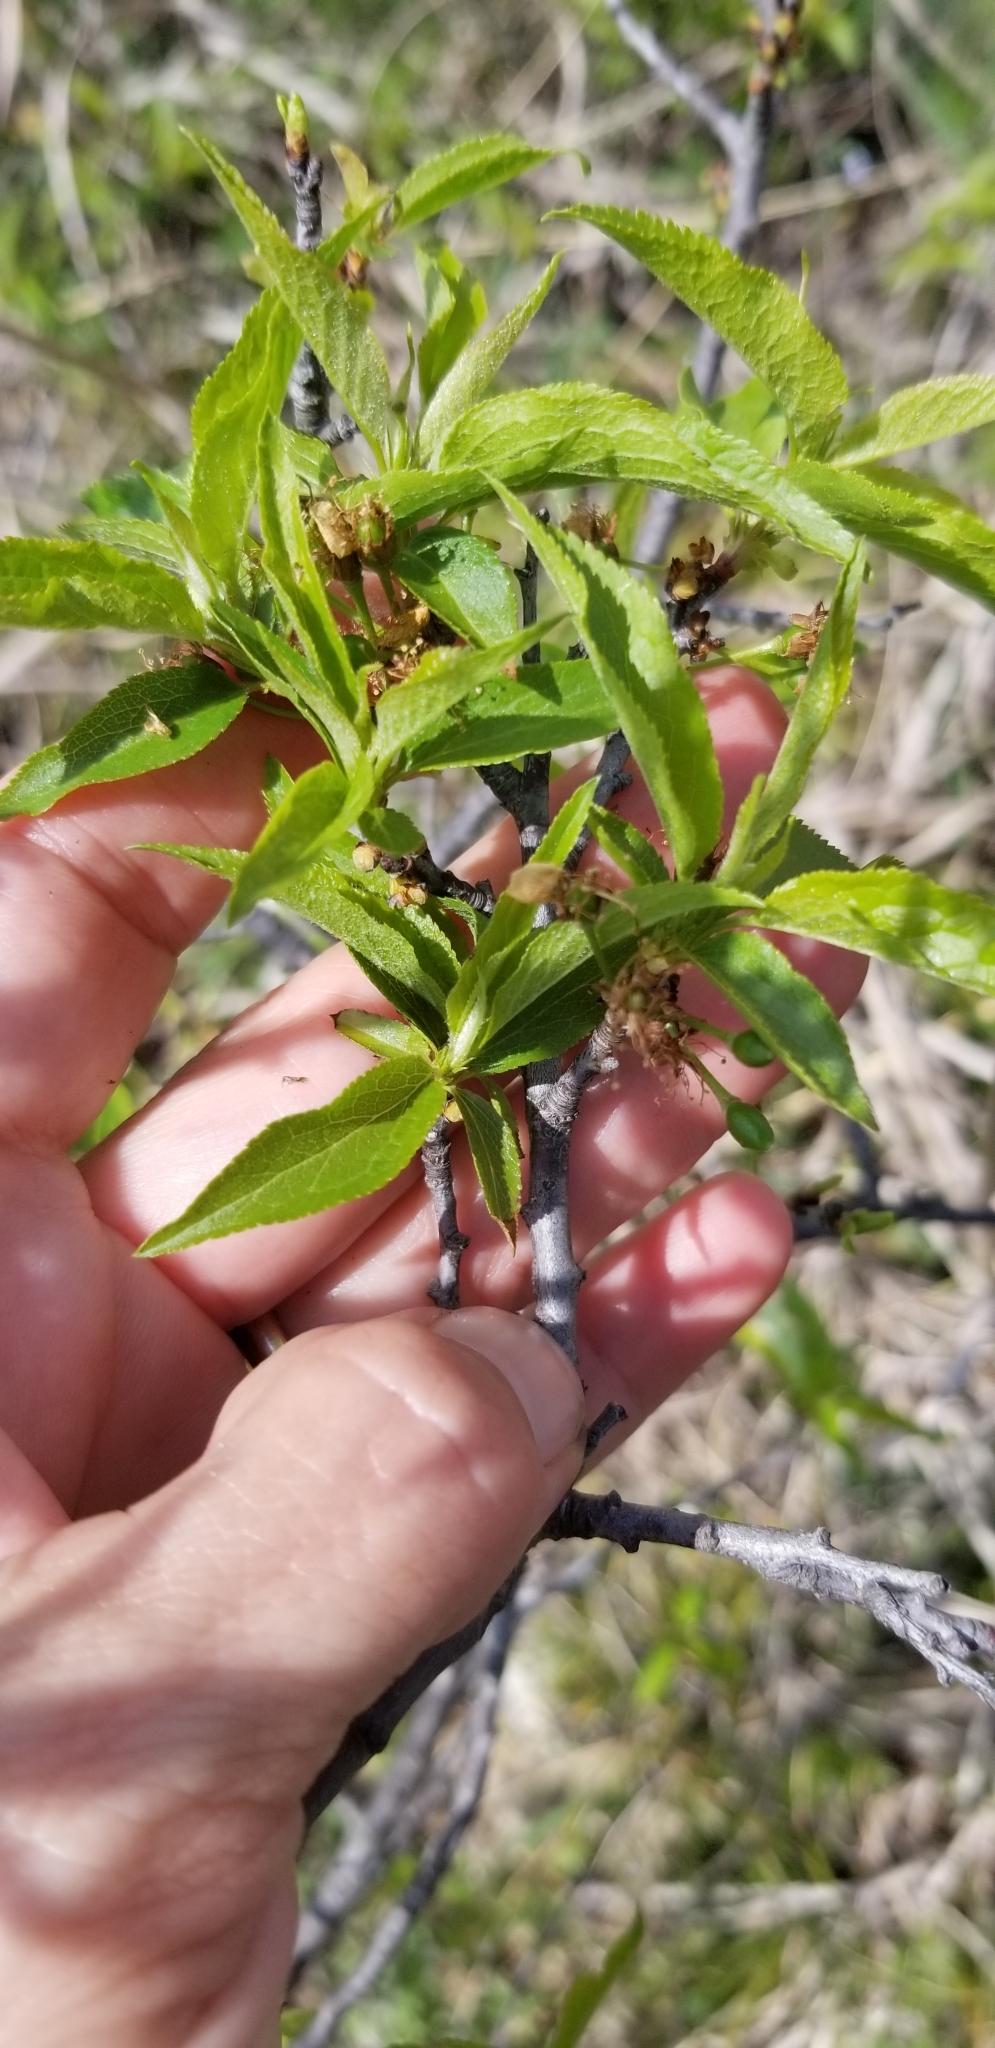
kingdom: Plantae
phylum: Tracheophyta
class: Magnoliopsida
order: Rosales
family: Rosaceae
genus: Prunus
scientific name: Prunus rivularis
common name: Creek plum
